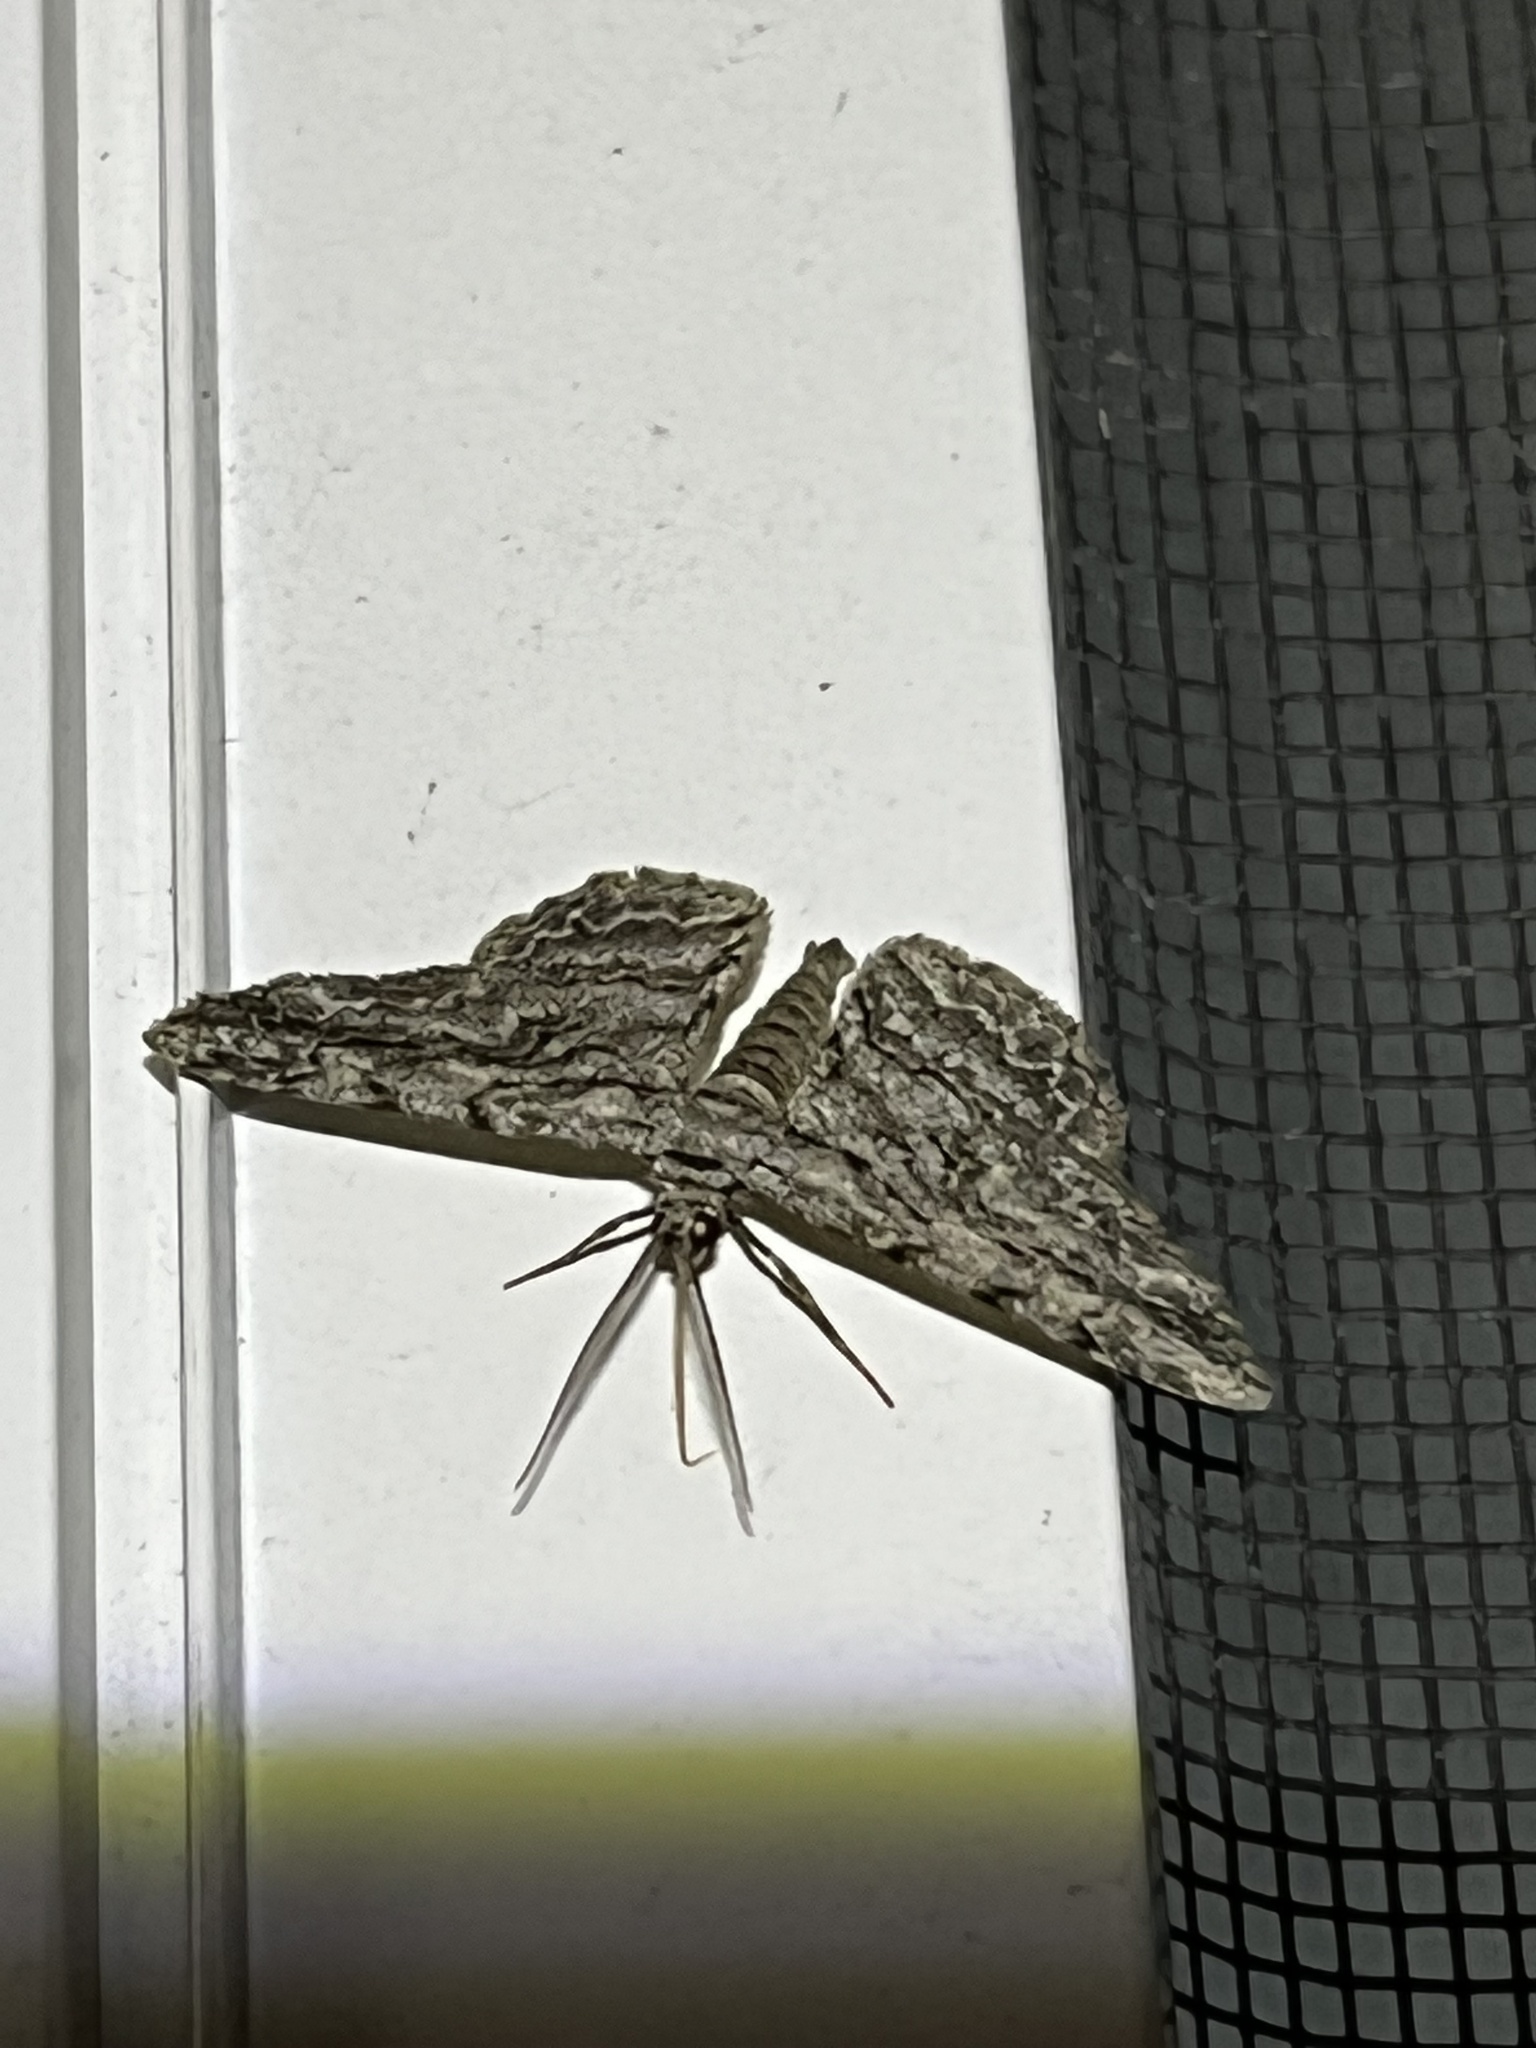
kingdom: Animalia
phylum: Arthropoda
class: Insecta
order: Lepidoptera
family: Geometridae
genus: Anavitrinella
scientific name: Anavitrinella pampinaria
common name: Common gray
